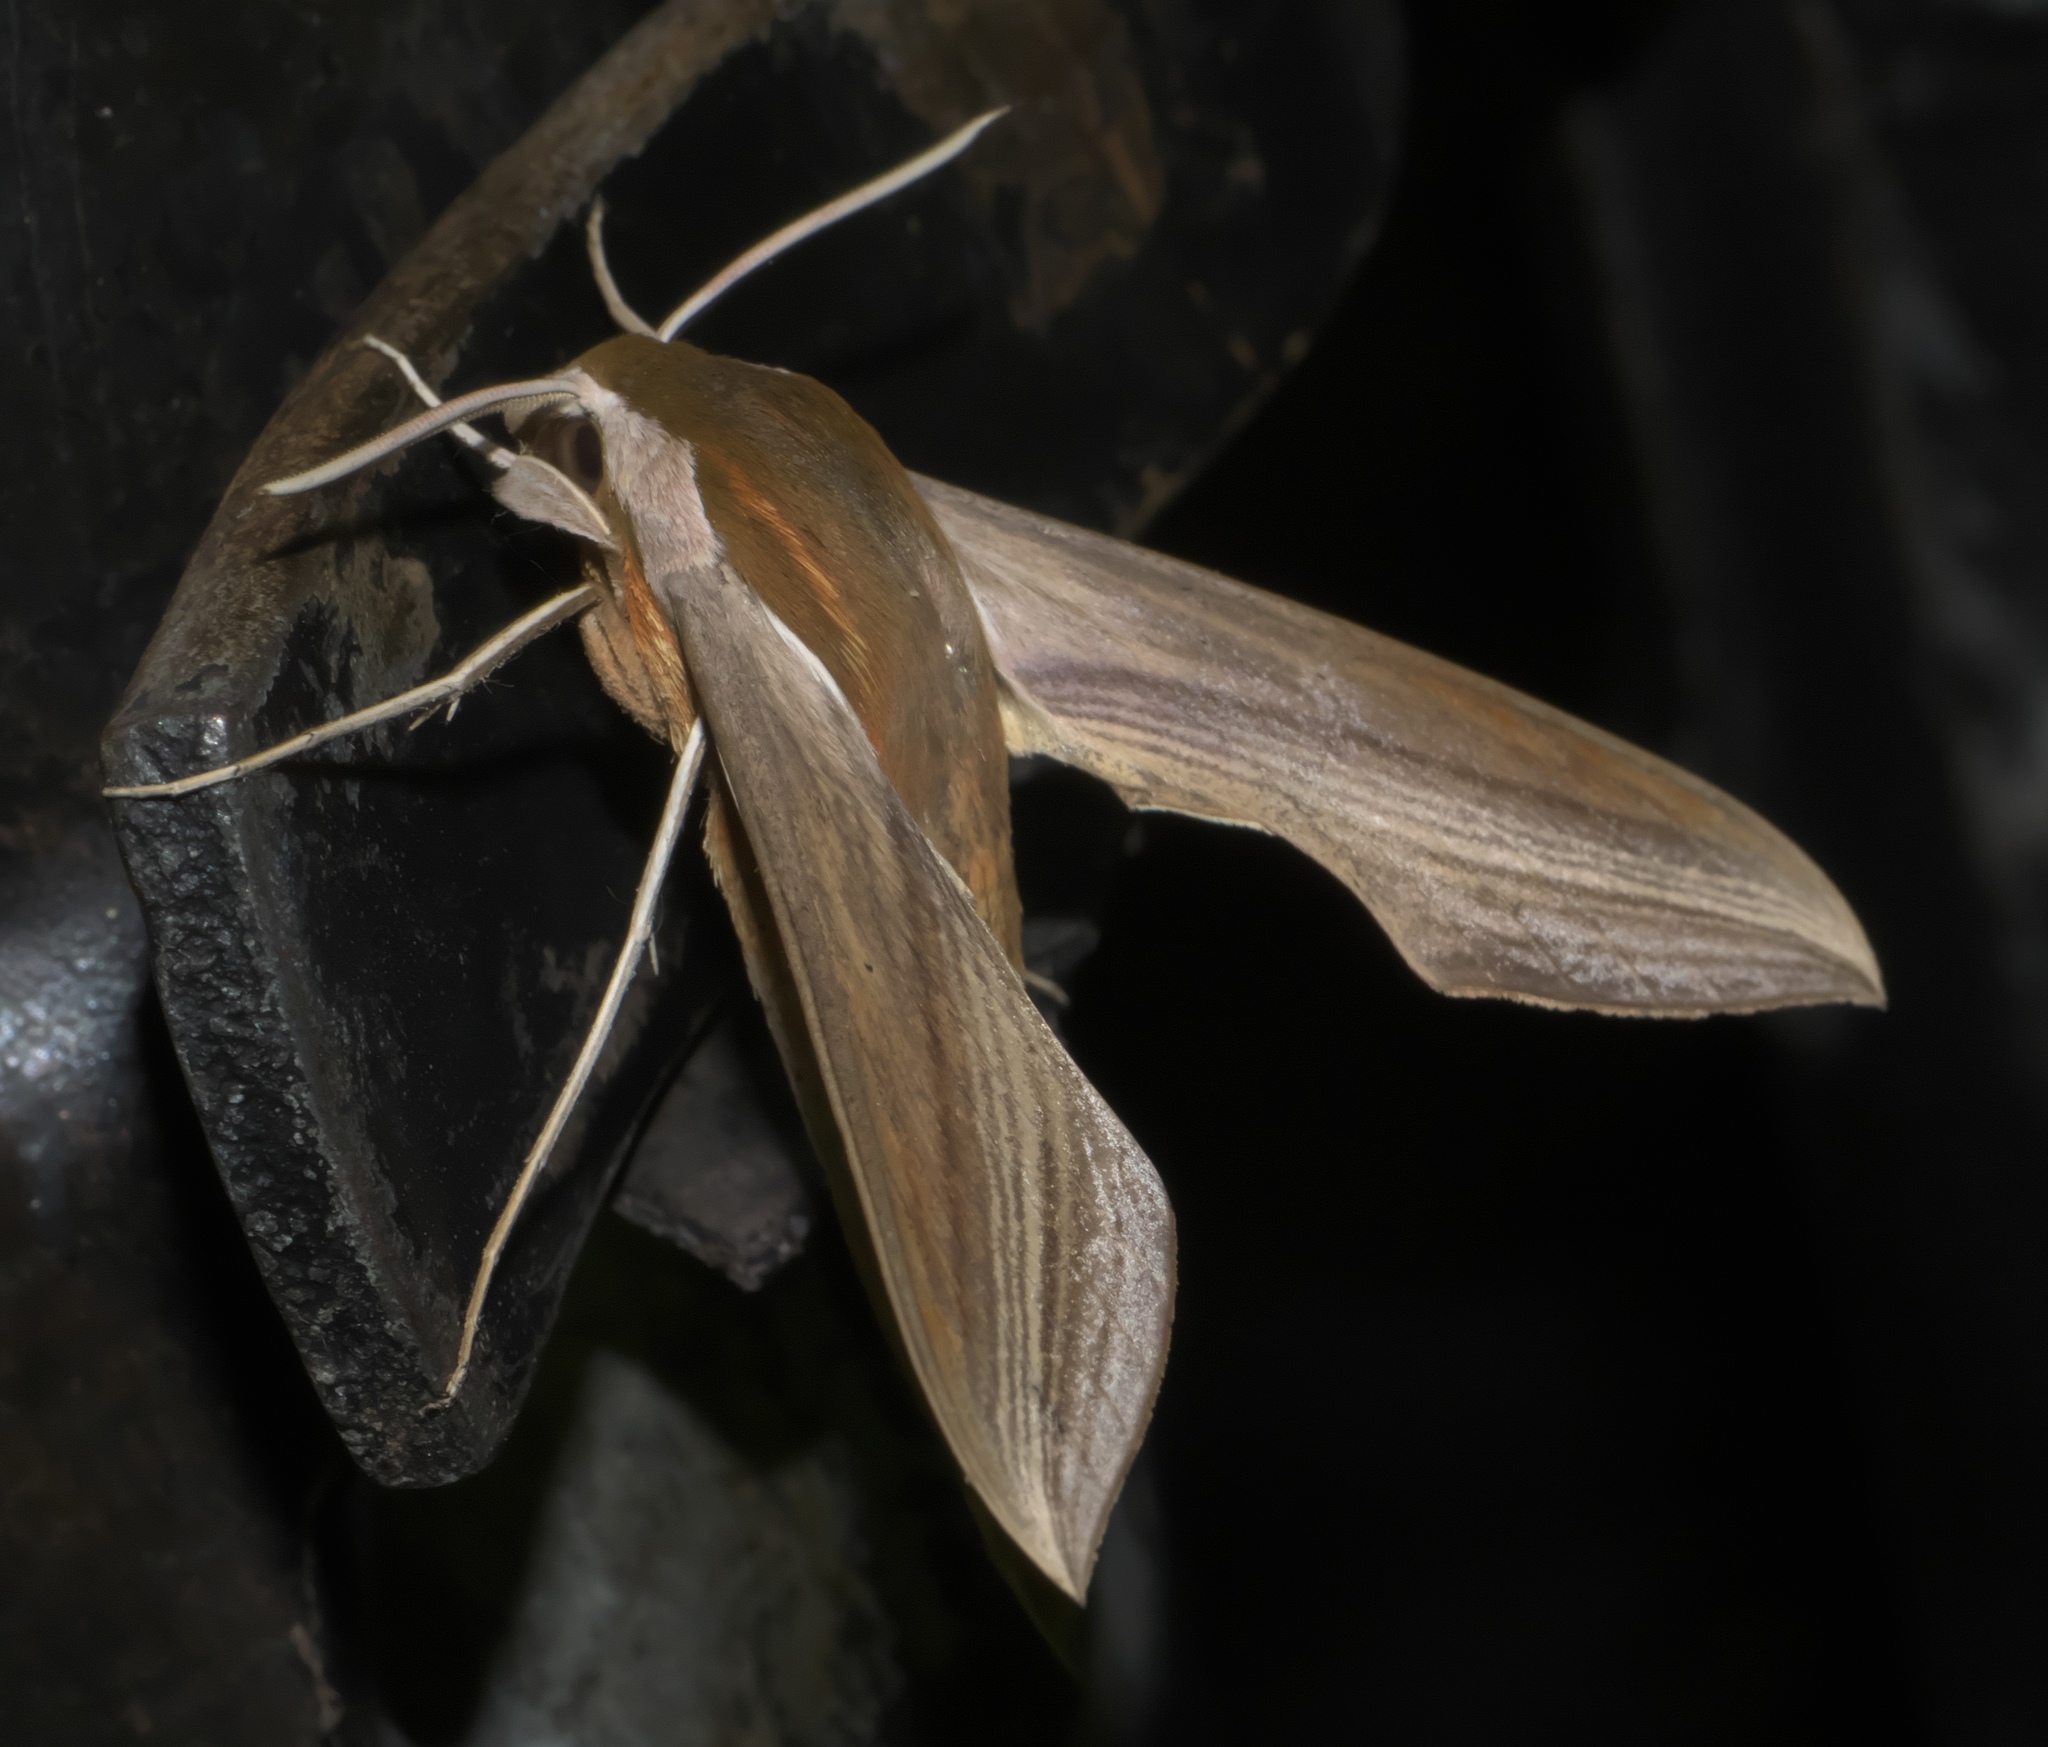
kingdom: Animalia
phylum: Arthropoda
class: Insecta
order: Lepidoptera
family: Sphingidae
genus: Xylophanes
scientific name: Xylophanes tersa
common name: Tersa sphinx
